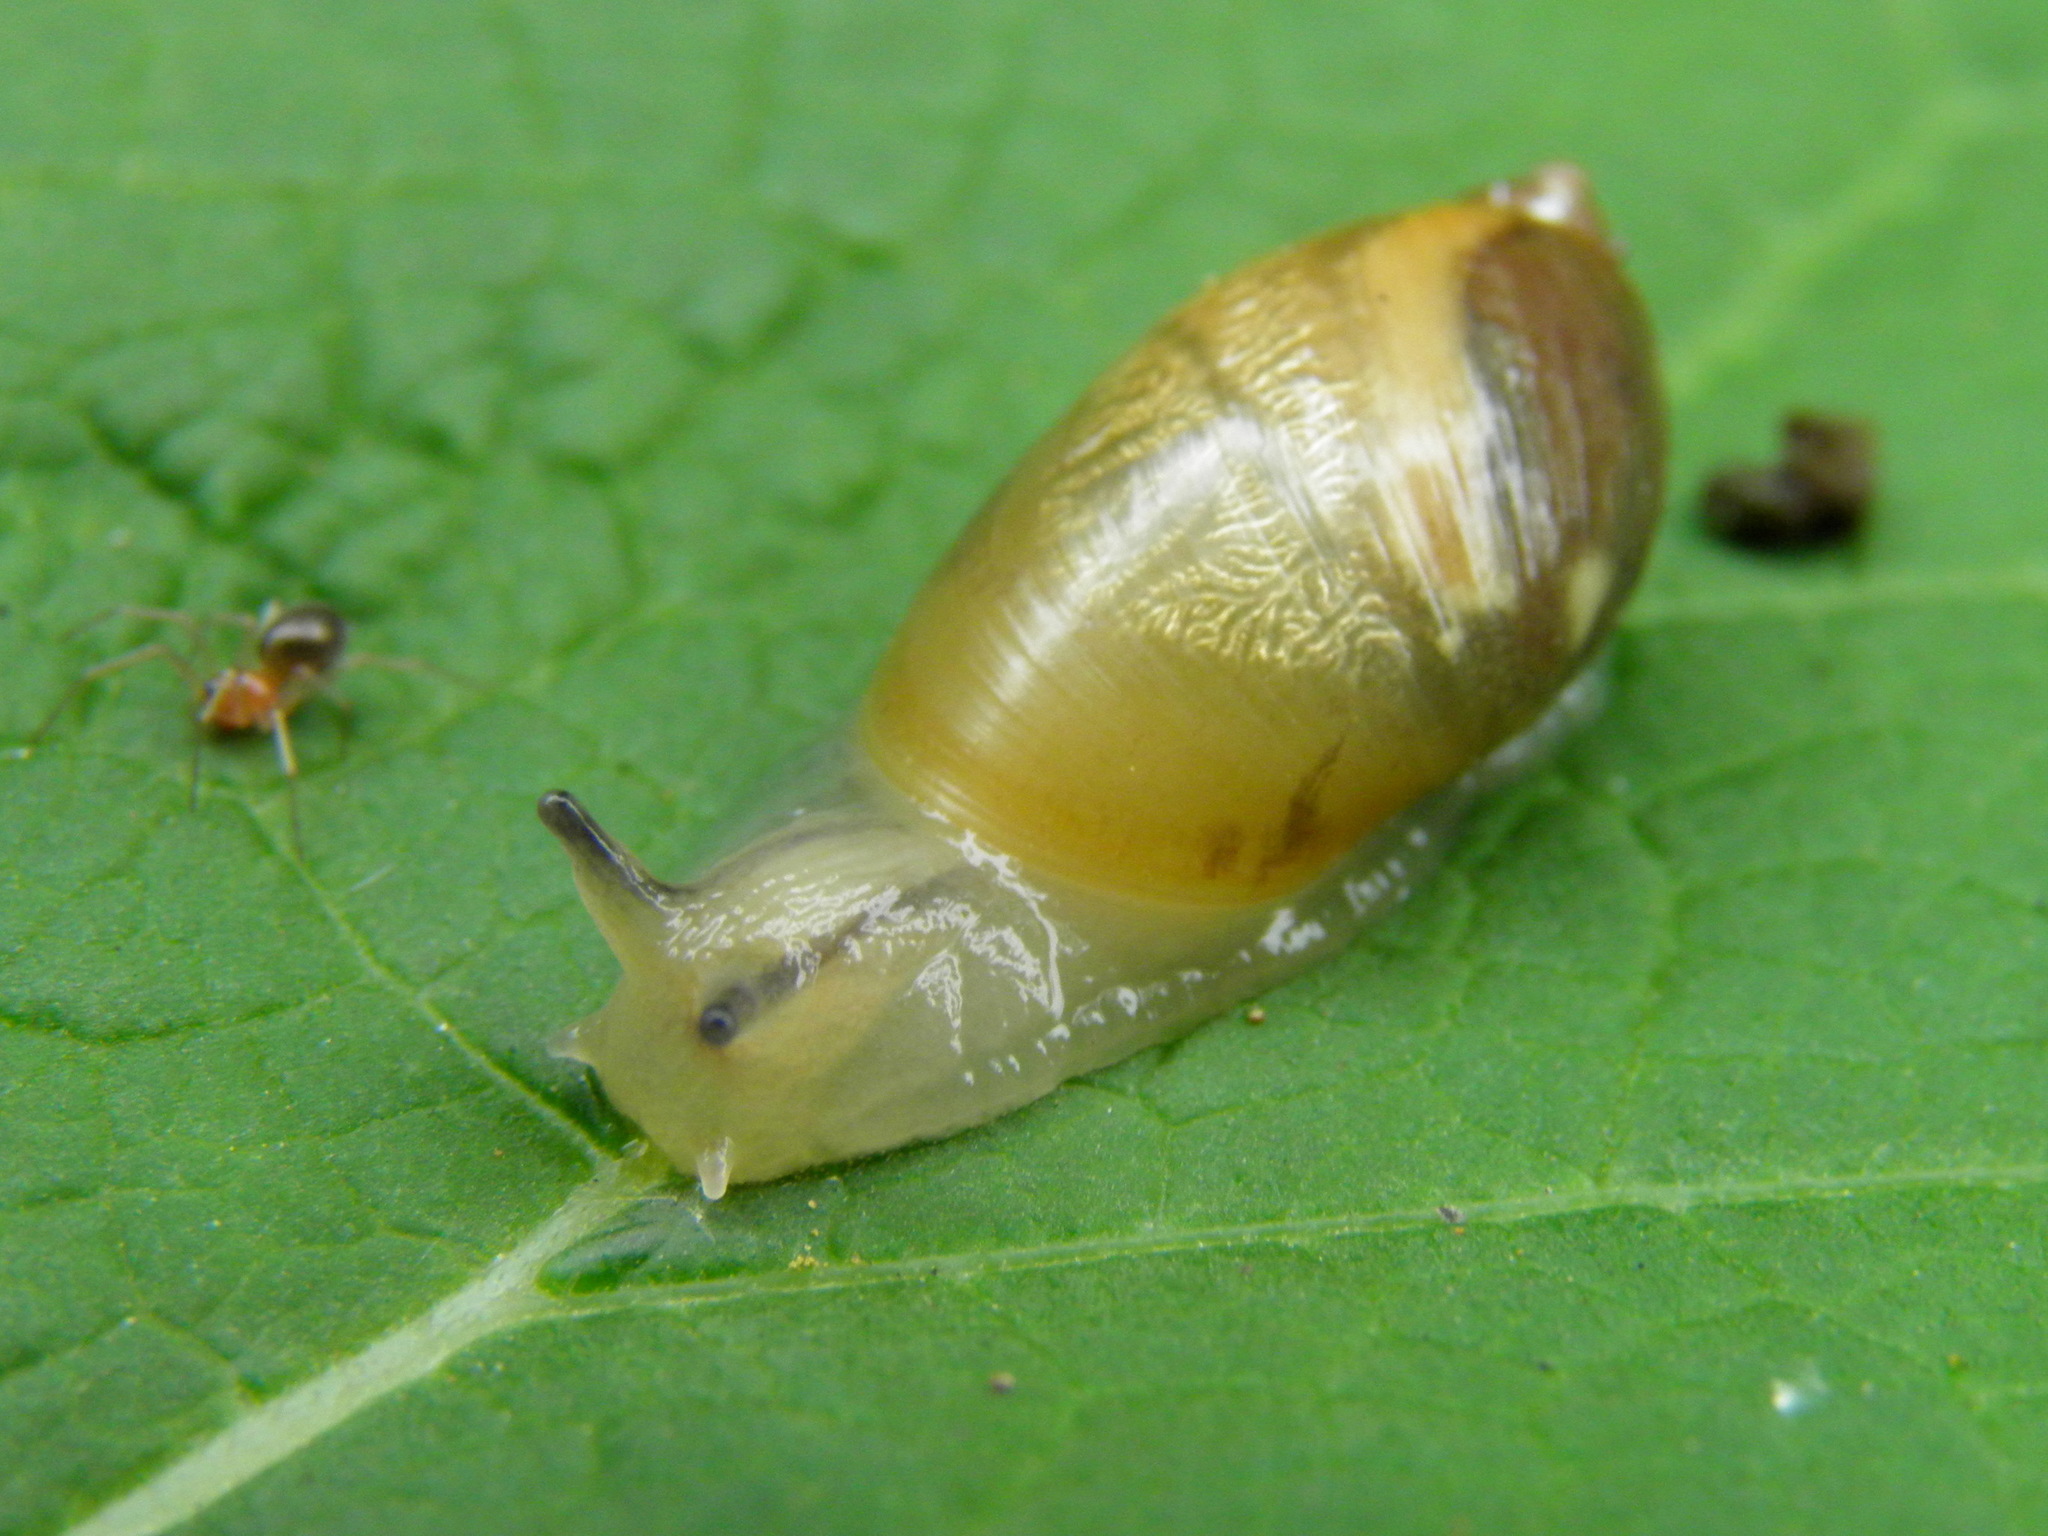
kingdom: Animalia
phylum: Mollusca
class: Gastropoda
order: Stylommatophora
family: Succineidae
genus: Succinea
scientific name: Succinea lauta
